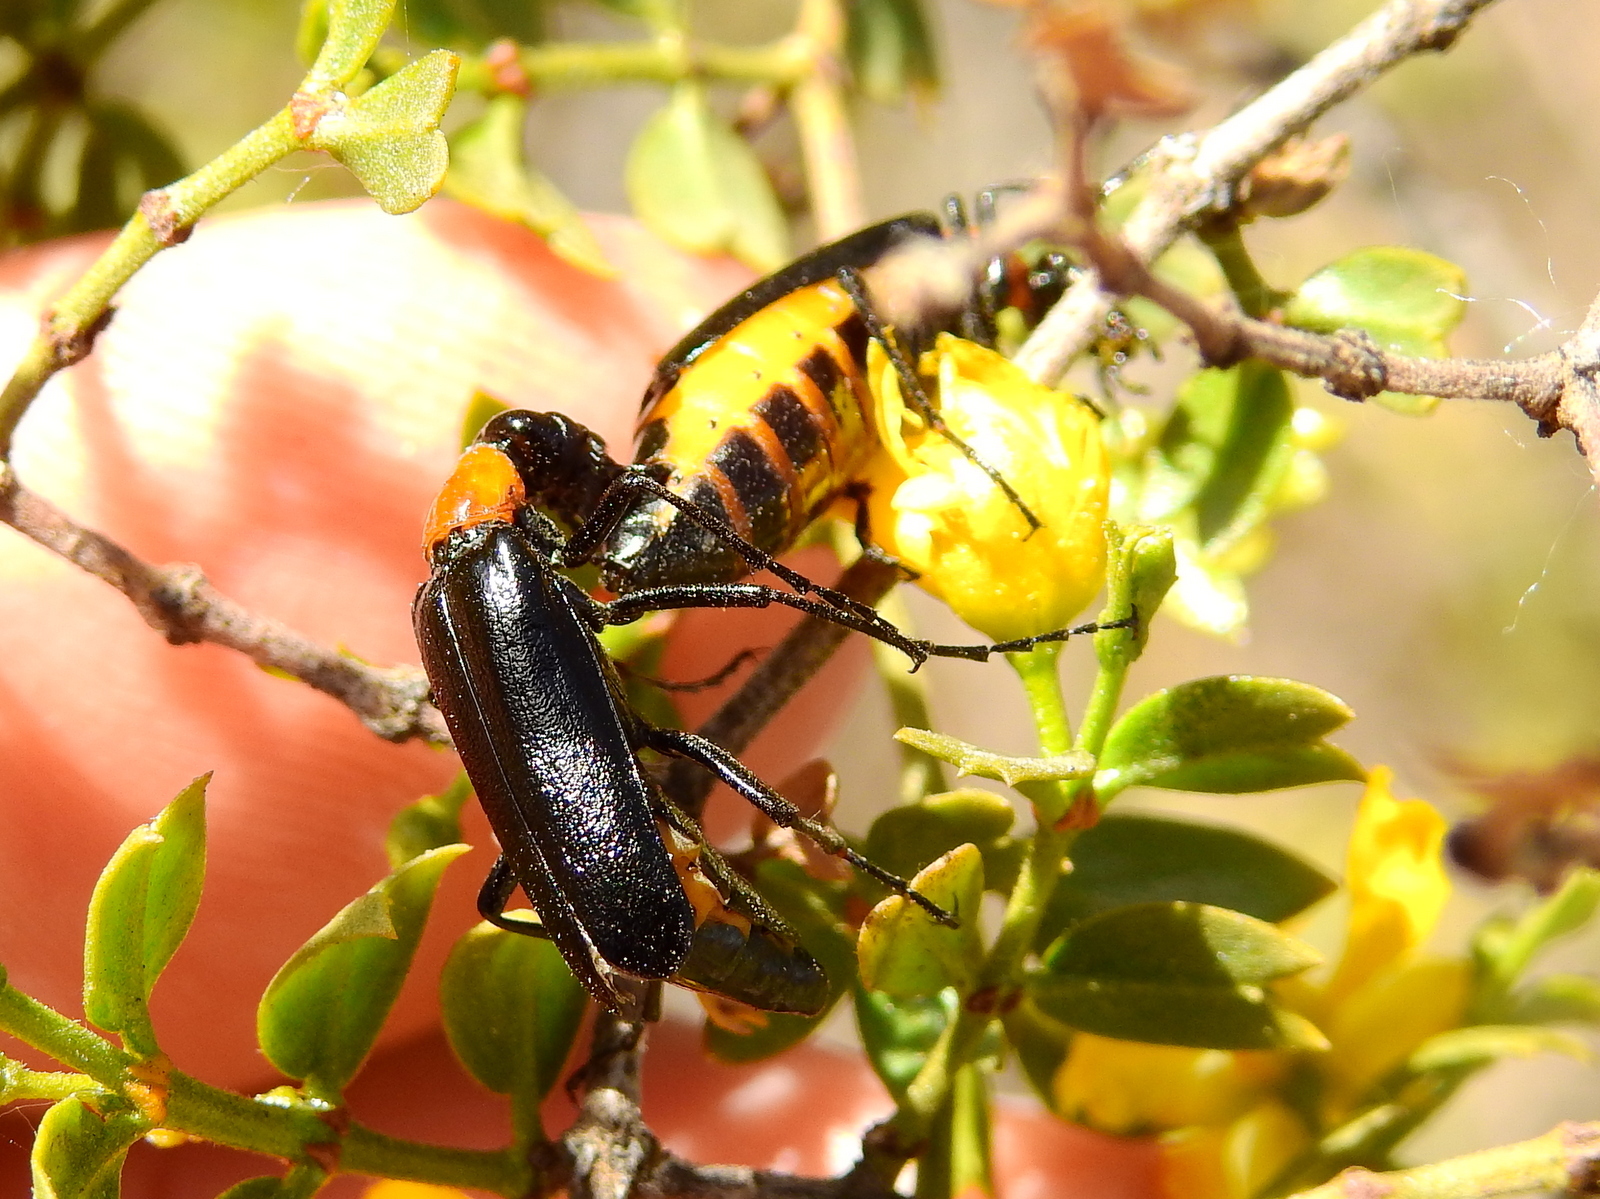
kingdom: Animalia
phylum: Arthropoda
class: Insecta
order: Coleoptera
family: Meloidae
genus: Pseudopyrota
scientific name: Pseudopyrota
